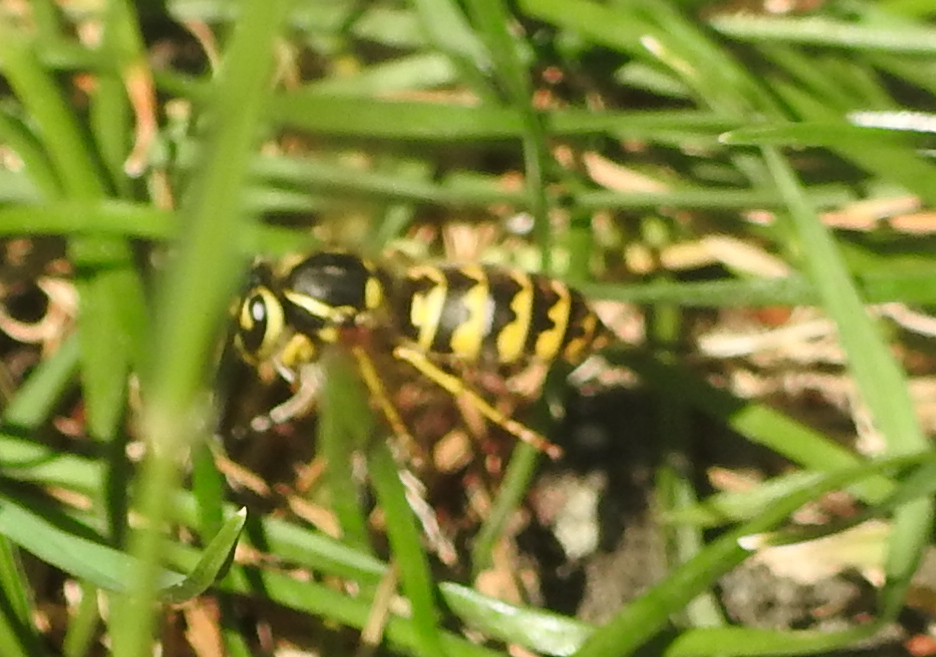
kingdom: Animalia
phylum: Arthropoda
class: Insecta
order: Hymenoptera
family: Vespidae
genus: Vespula
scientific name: Vespula pensylvanica
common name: Western yellowjacket
